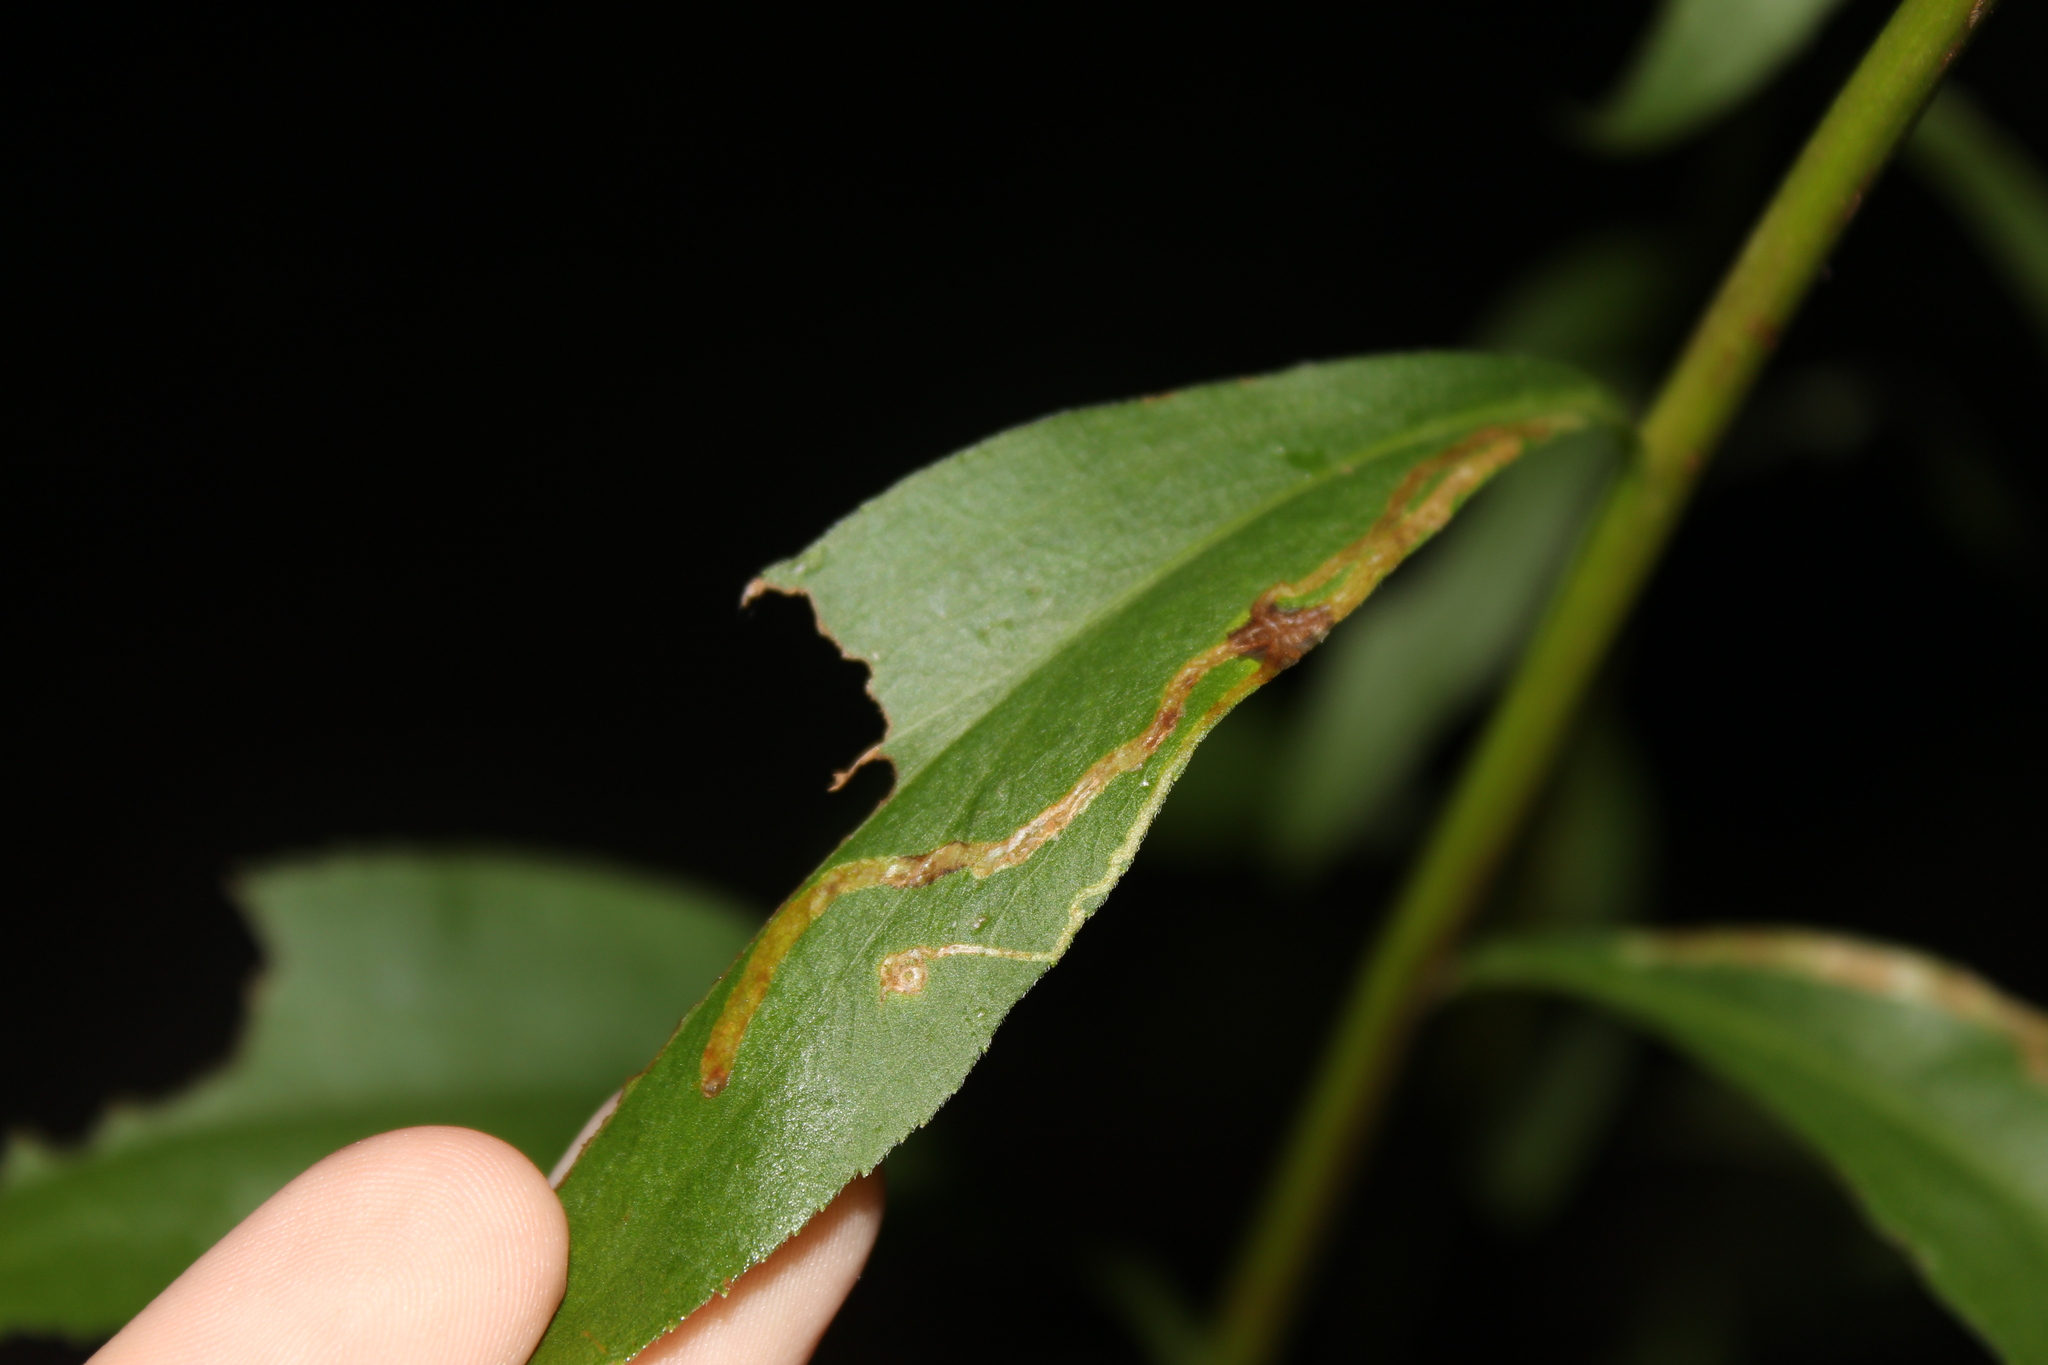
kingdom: Animalia
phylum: Arthropoda
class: Insecta
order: Diptera
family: Agromyzidae
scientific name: Agromyzidae
